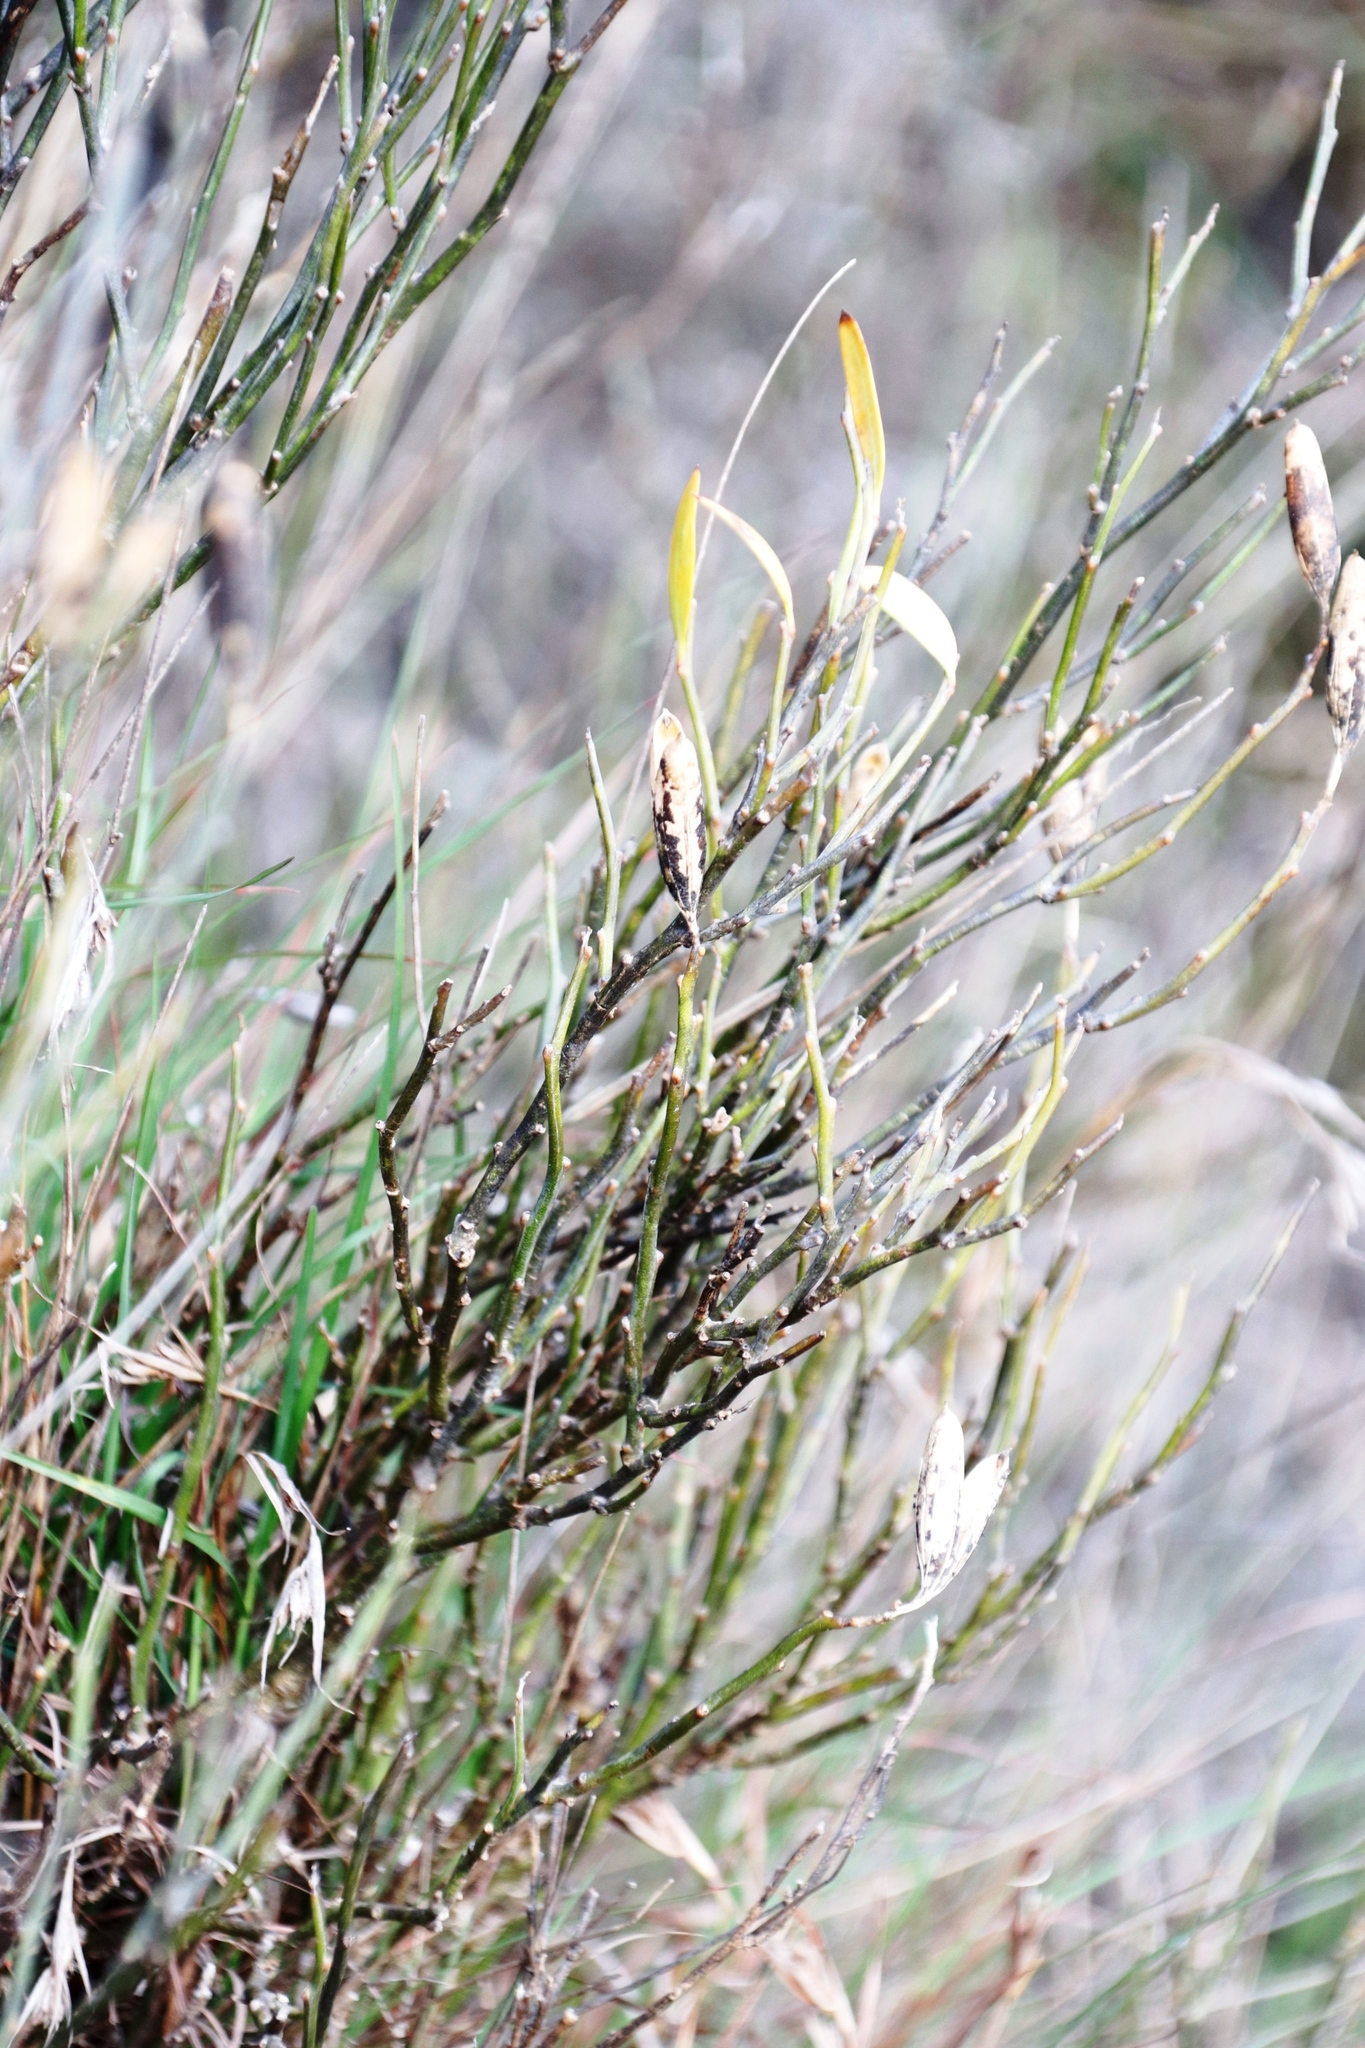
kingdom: Plantae
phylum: Tracheophyta
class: Magnoliopsida
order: Solanales
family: Montiniaceae
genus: Montinia
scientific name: Montinia caryophyllacea
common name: Wild clove-bush
